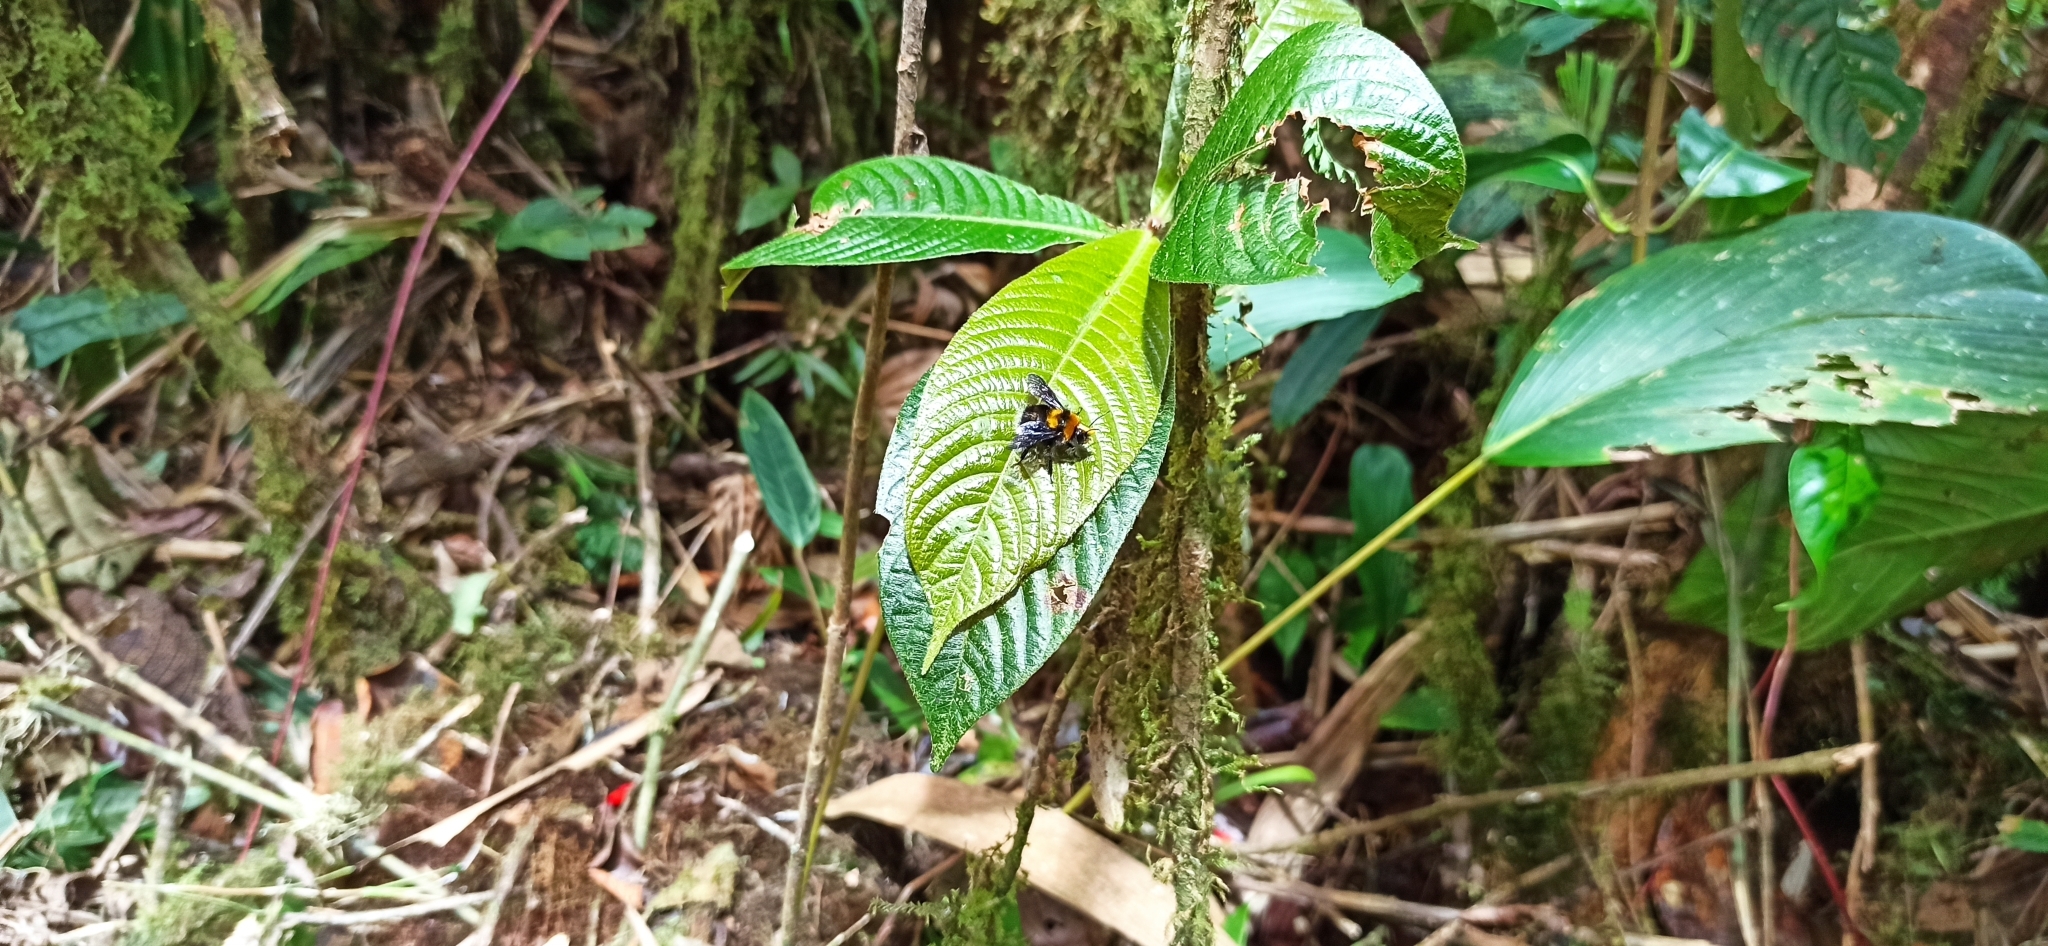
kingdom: Animalia
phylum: Arthropoda
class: Insecta
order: Hymenoptera
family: Apidae
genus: Bombus
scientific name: Bombus hortulanus
